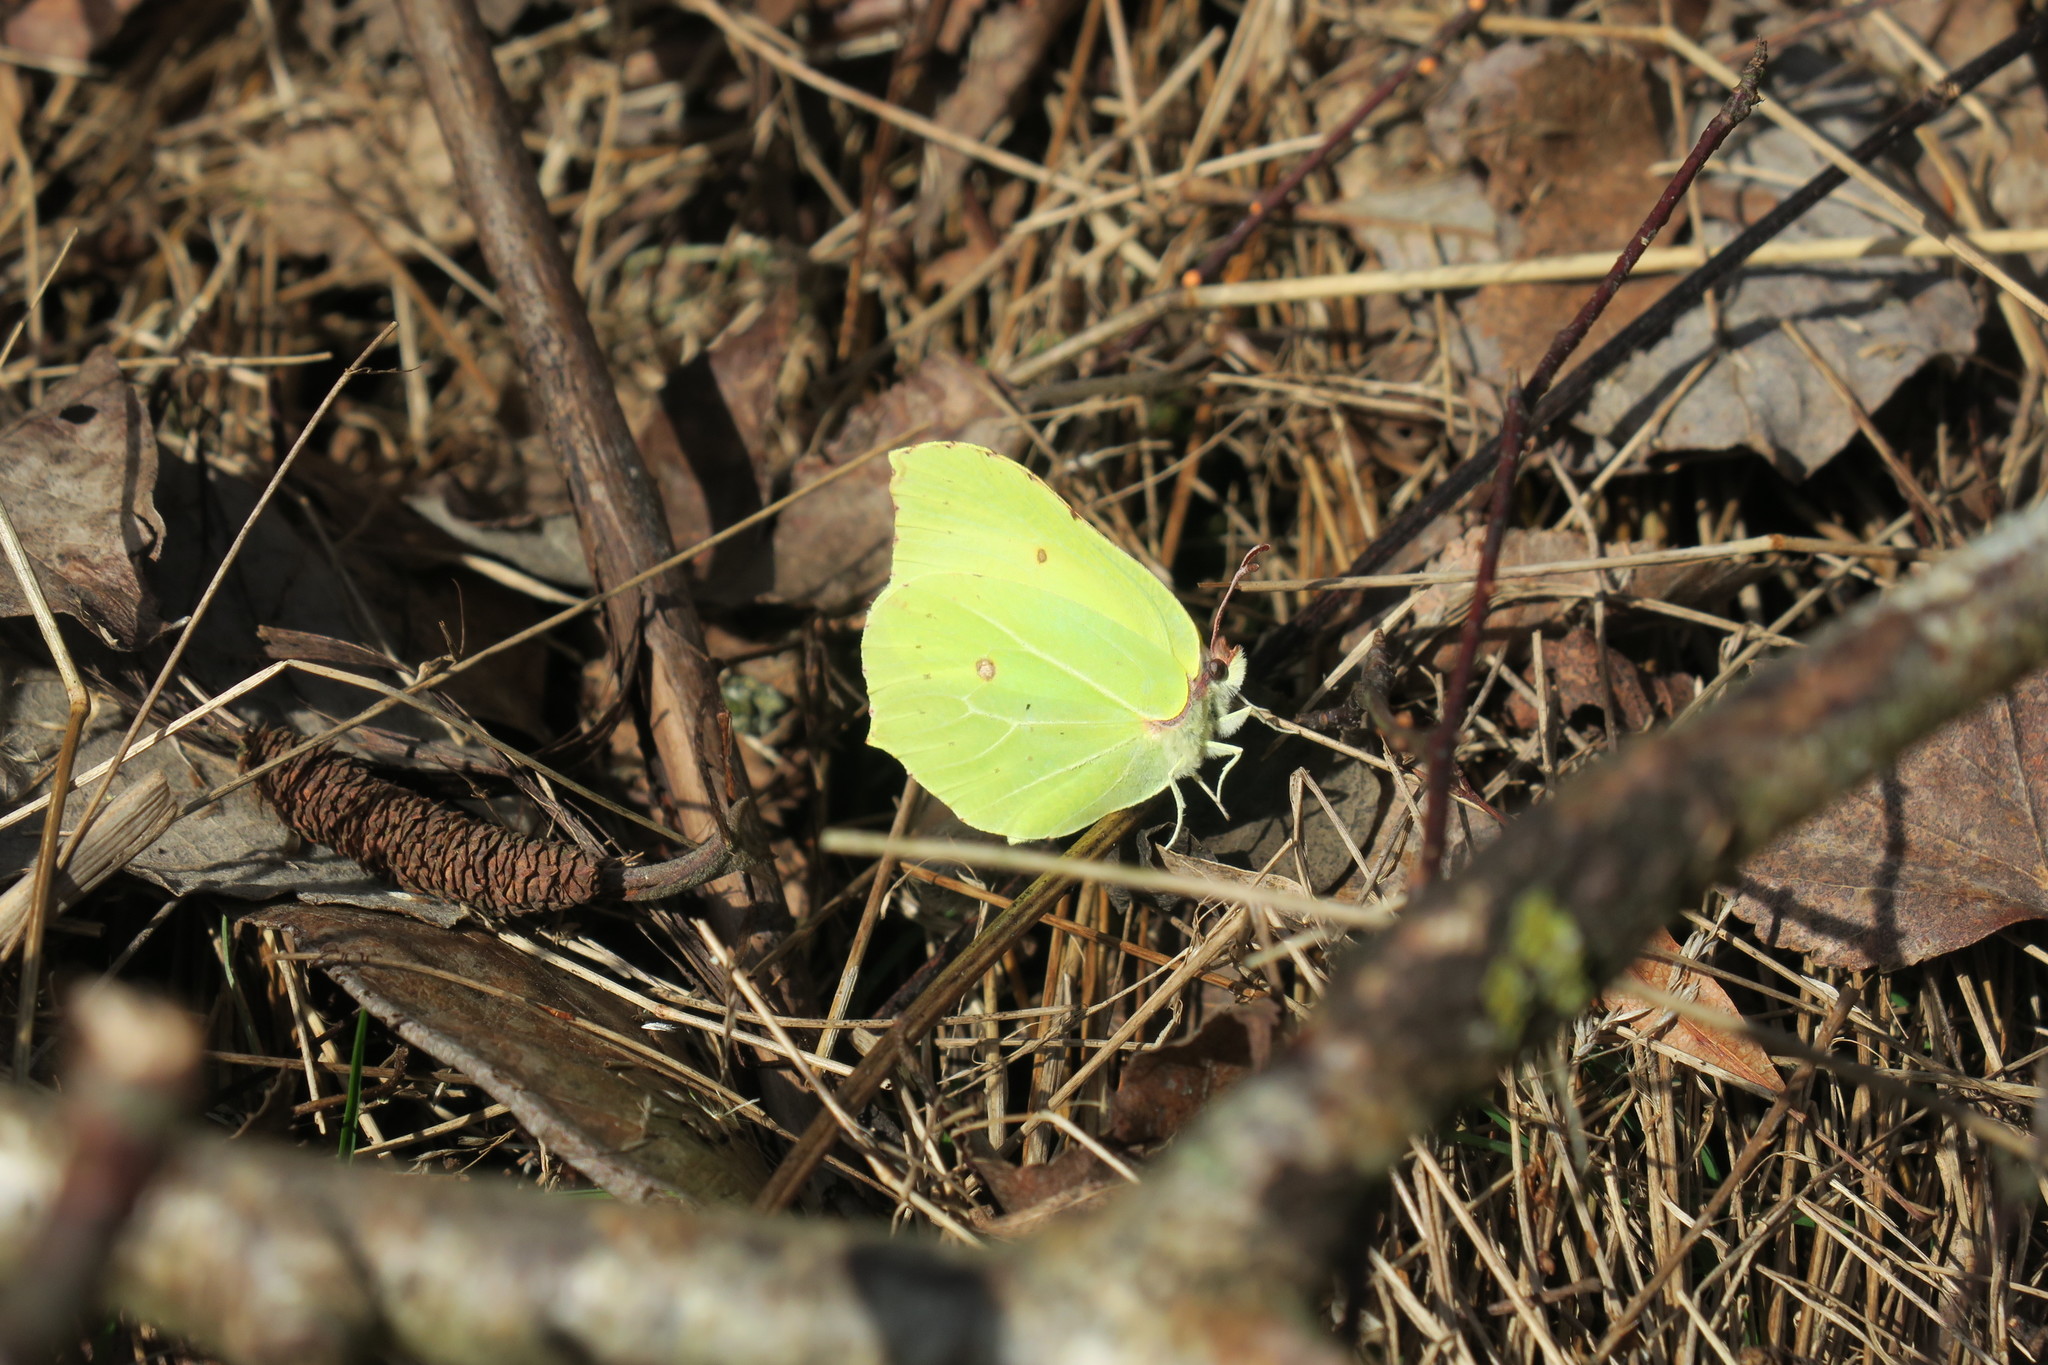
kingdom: Animalia
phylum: Arthropoda
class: Insecta
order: Lepidoptera
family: Pieridae
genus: Gonepteryx
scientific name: Gonepteryx rhamni
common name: Brimstone
